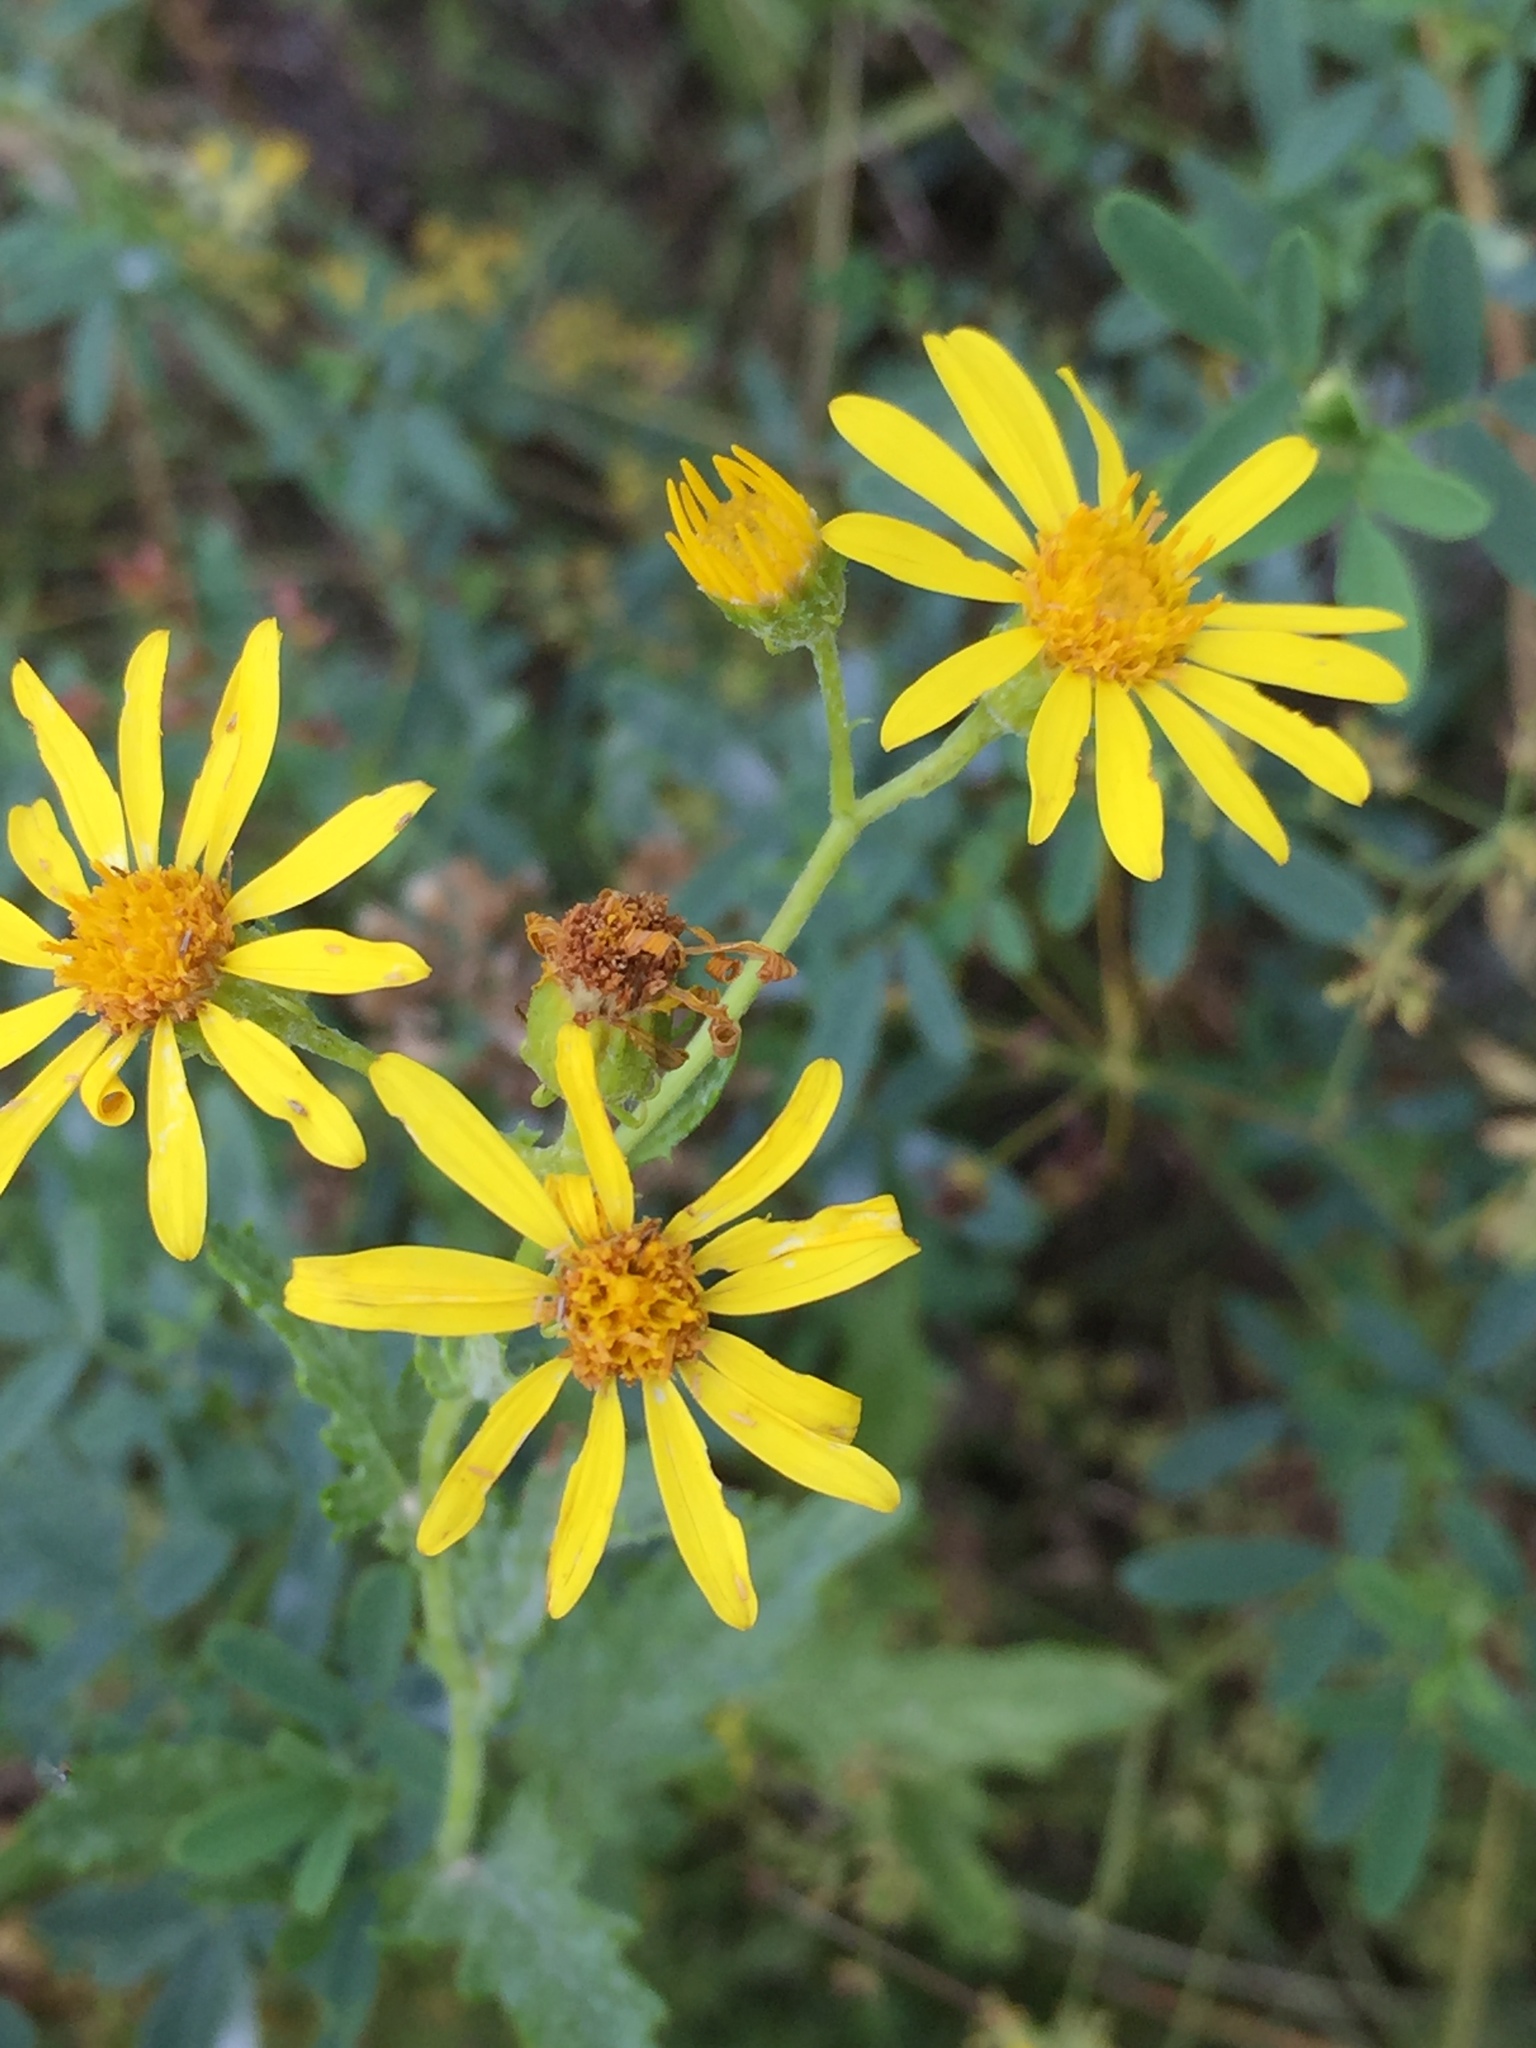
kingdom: Plantae
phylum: Tracheophyta
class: Magnoliopsida
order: Asterales
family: Asteraceae
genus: Jacobaea
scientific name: Jacobaea erucifolia
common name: Hoary ragwort
